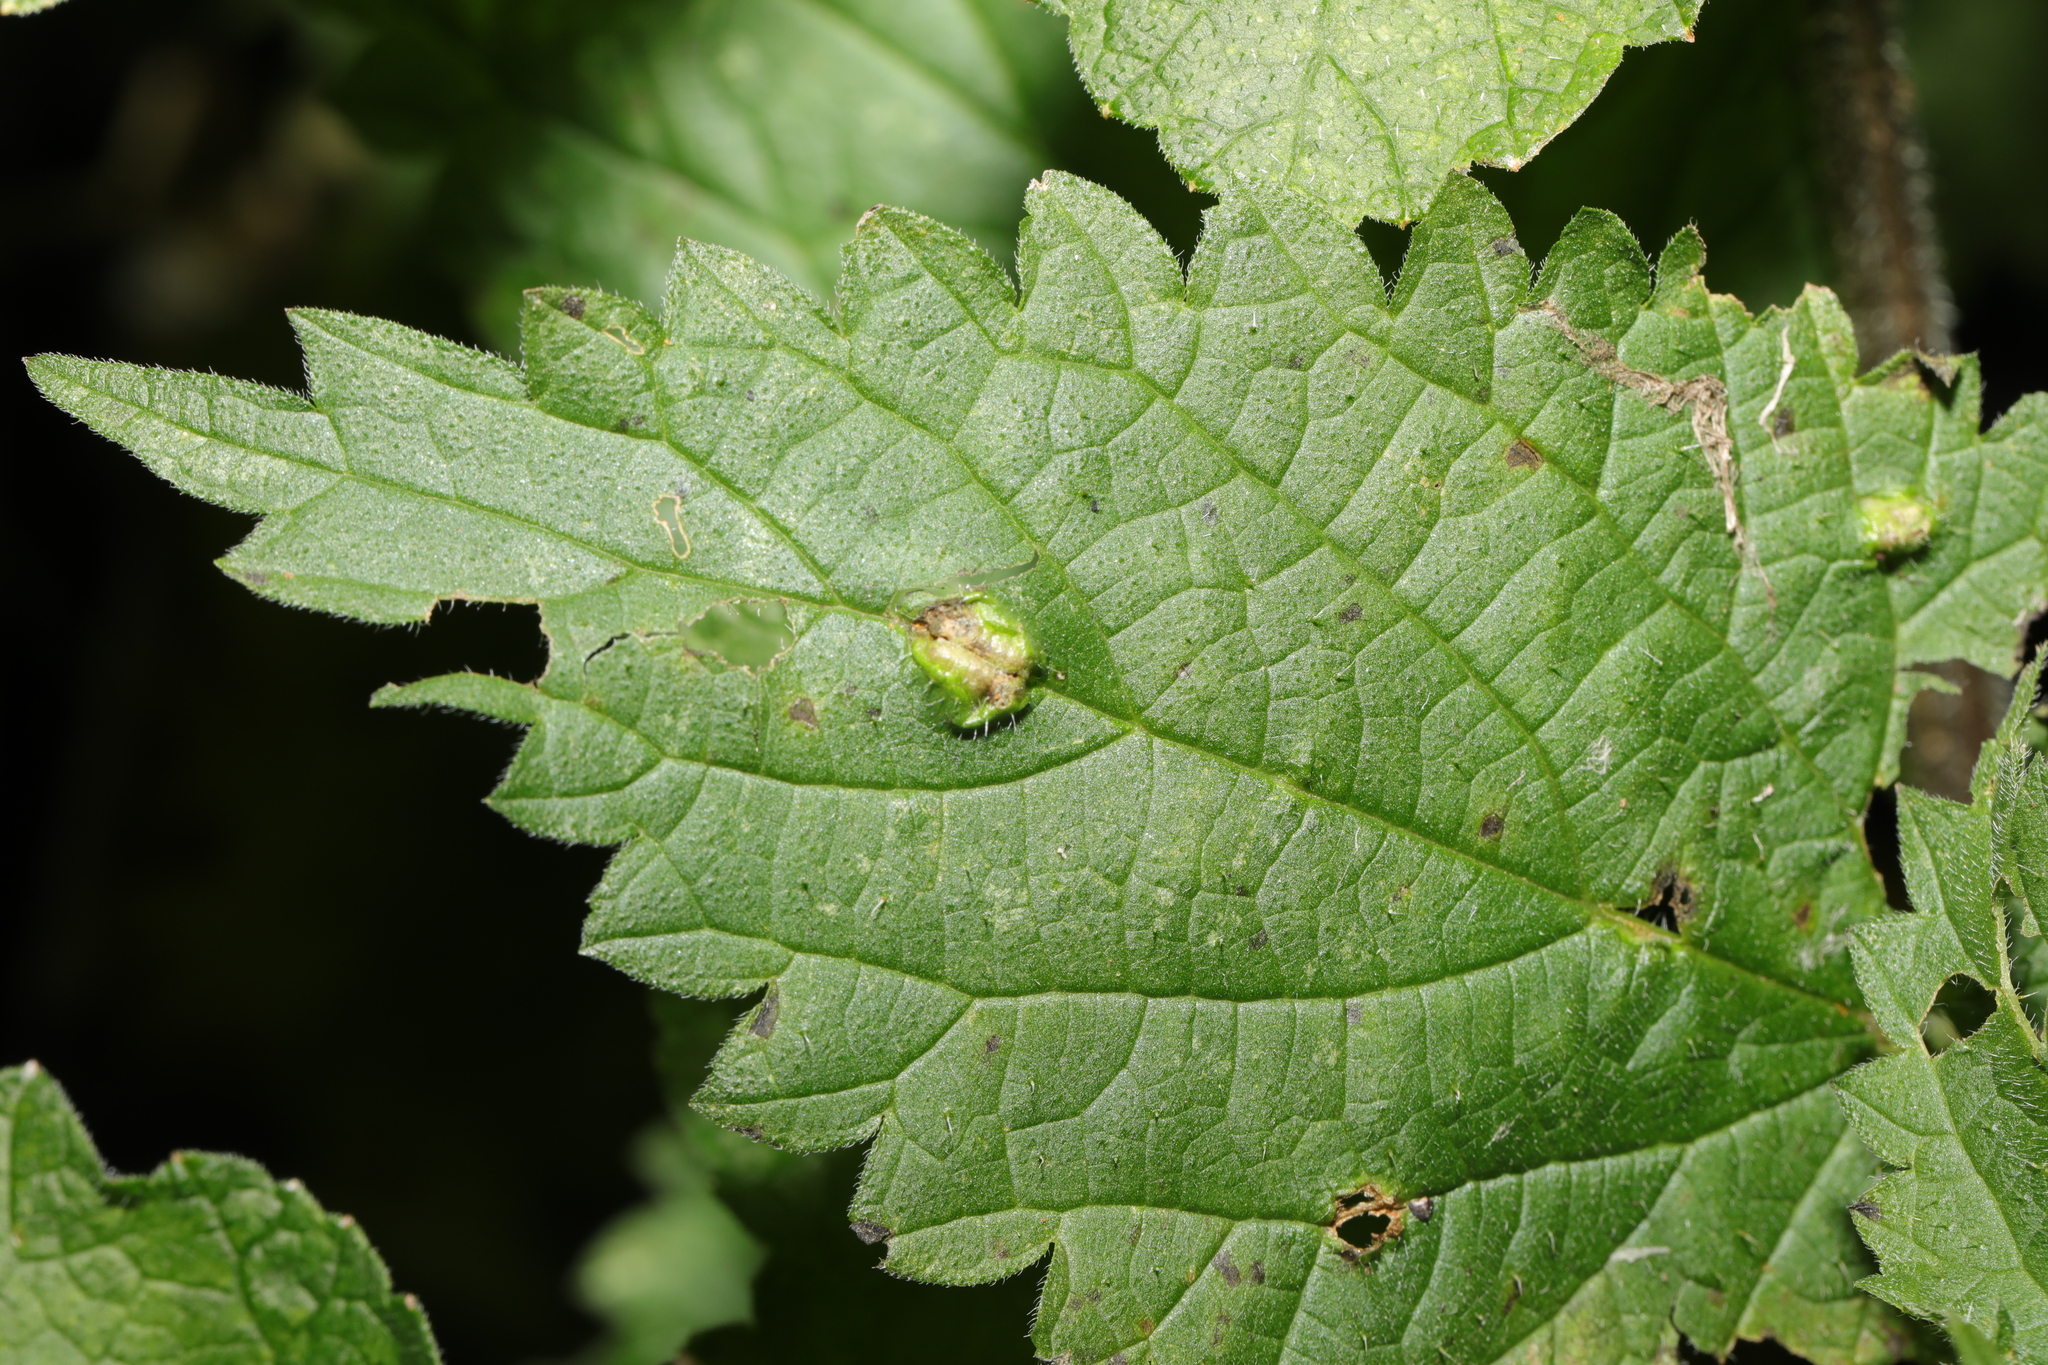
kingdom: Animalia
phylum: Arthropoda
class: Insecta
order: Diptera
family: Cecidomyiidae
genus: Dasineura
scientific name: Dasineura urticae
